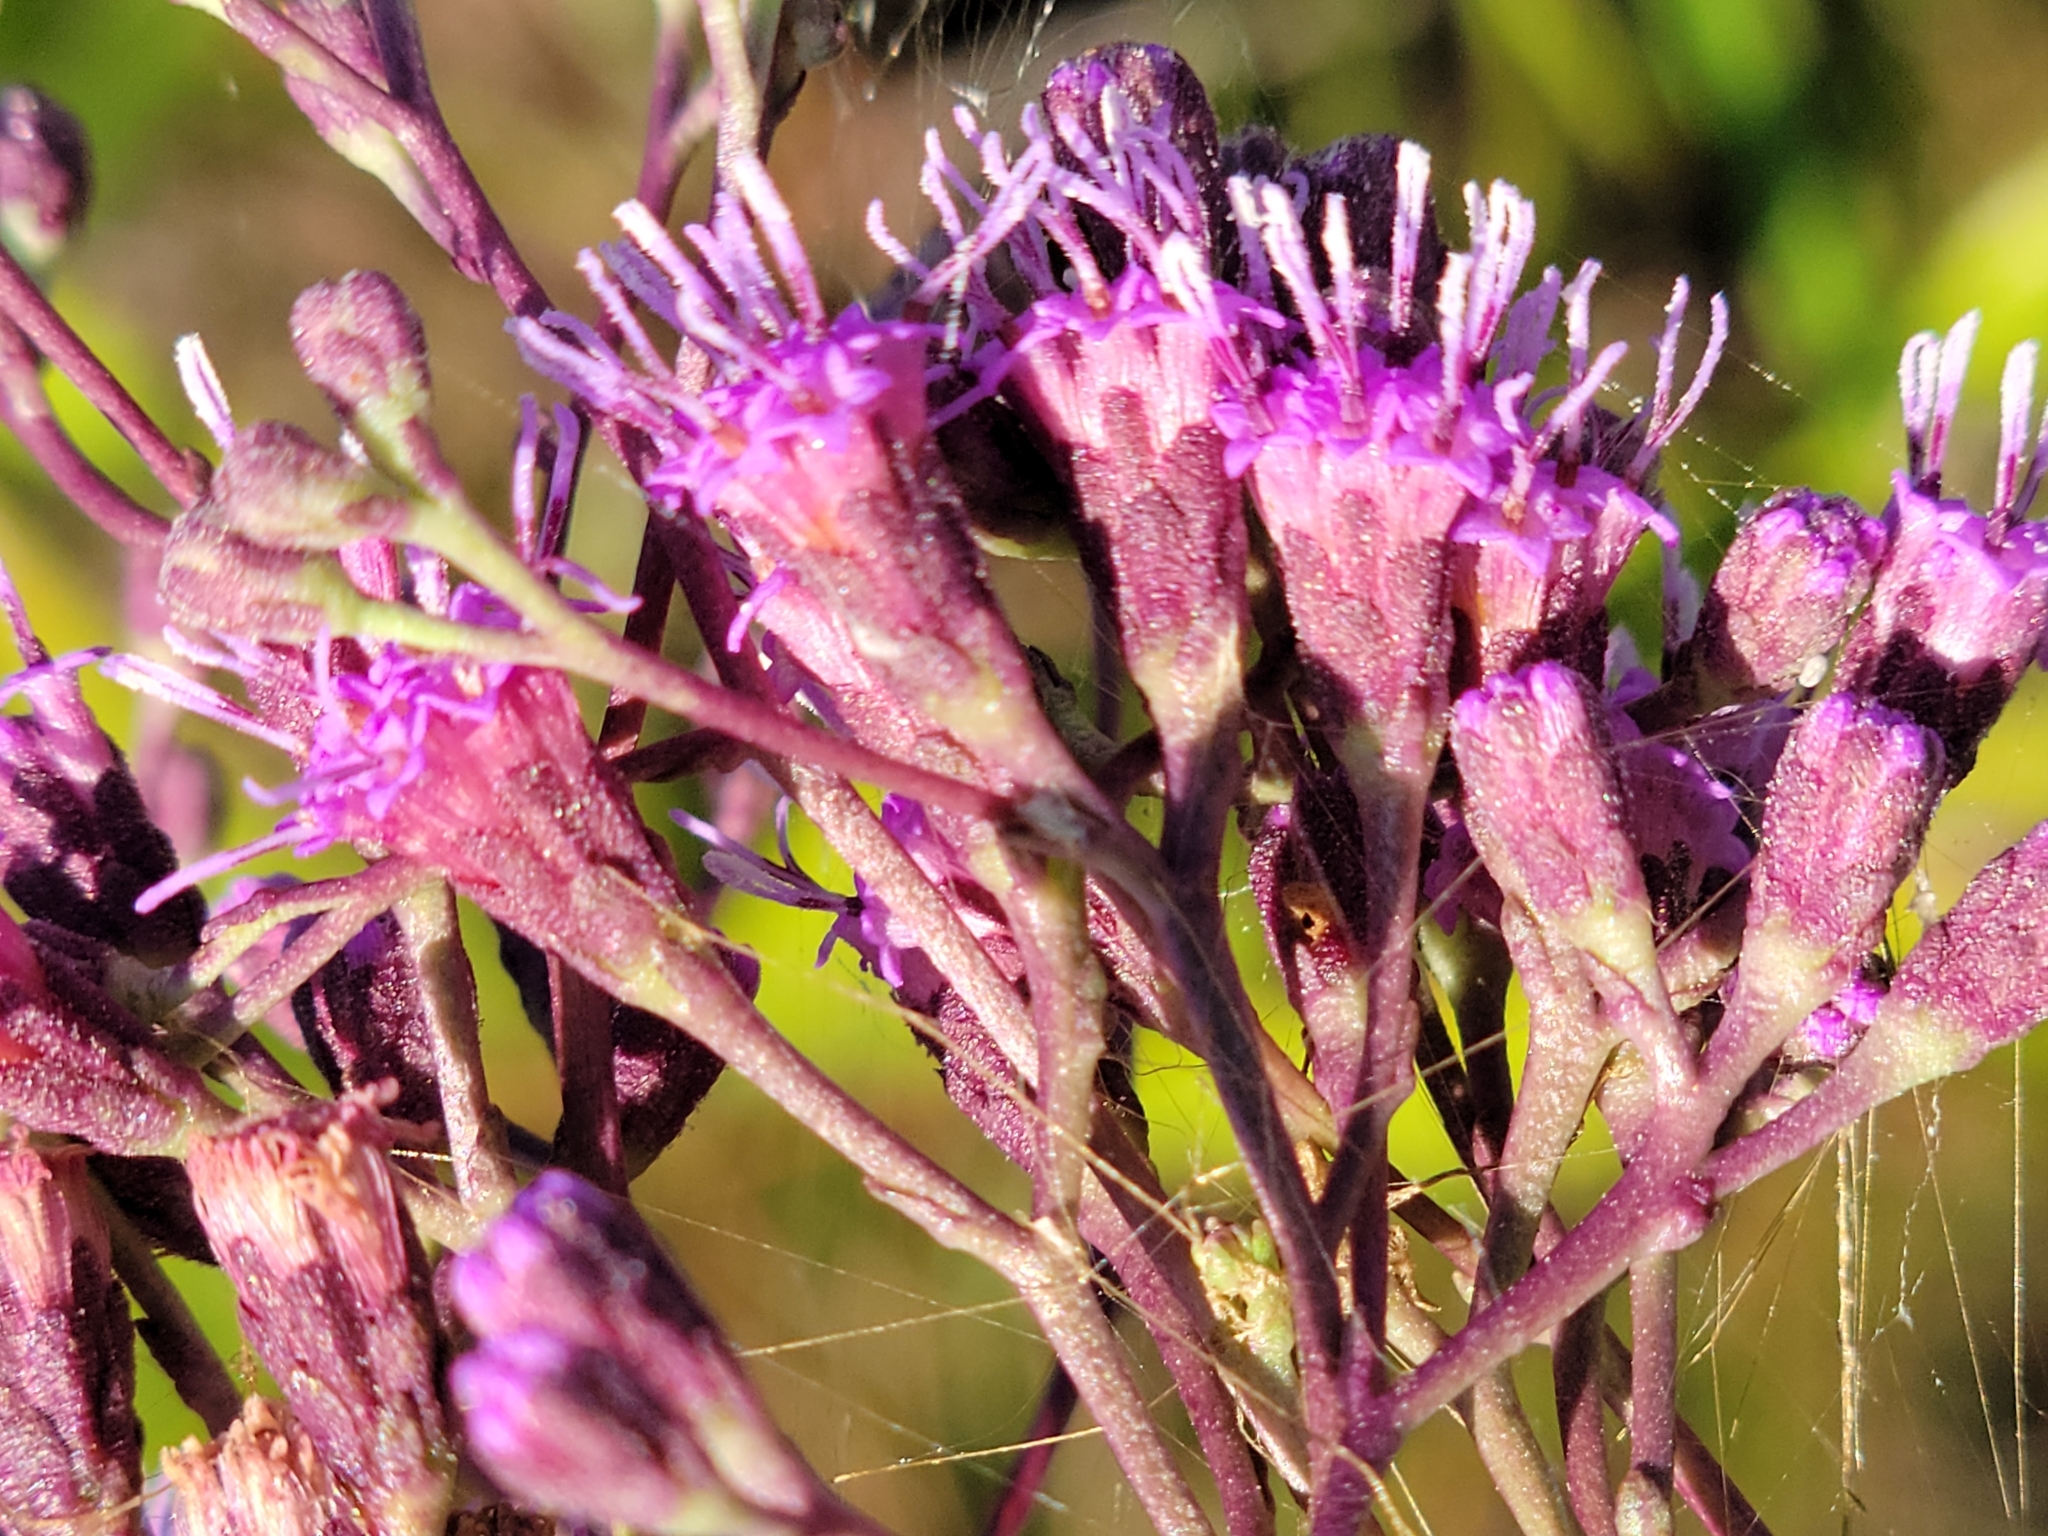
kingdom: Plantae
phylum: Tracheophyta
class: Magnoliopsida
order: Asterales
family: Asteraceae
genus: Carphephorus
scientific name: Carphephorus
